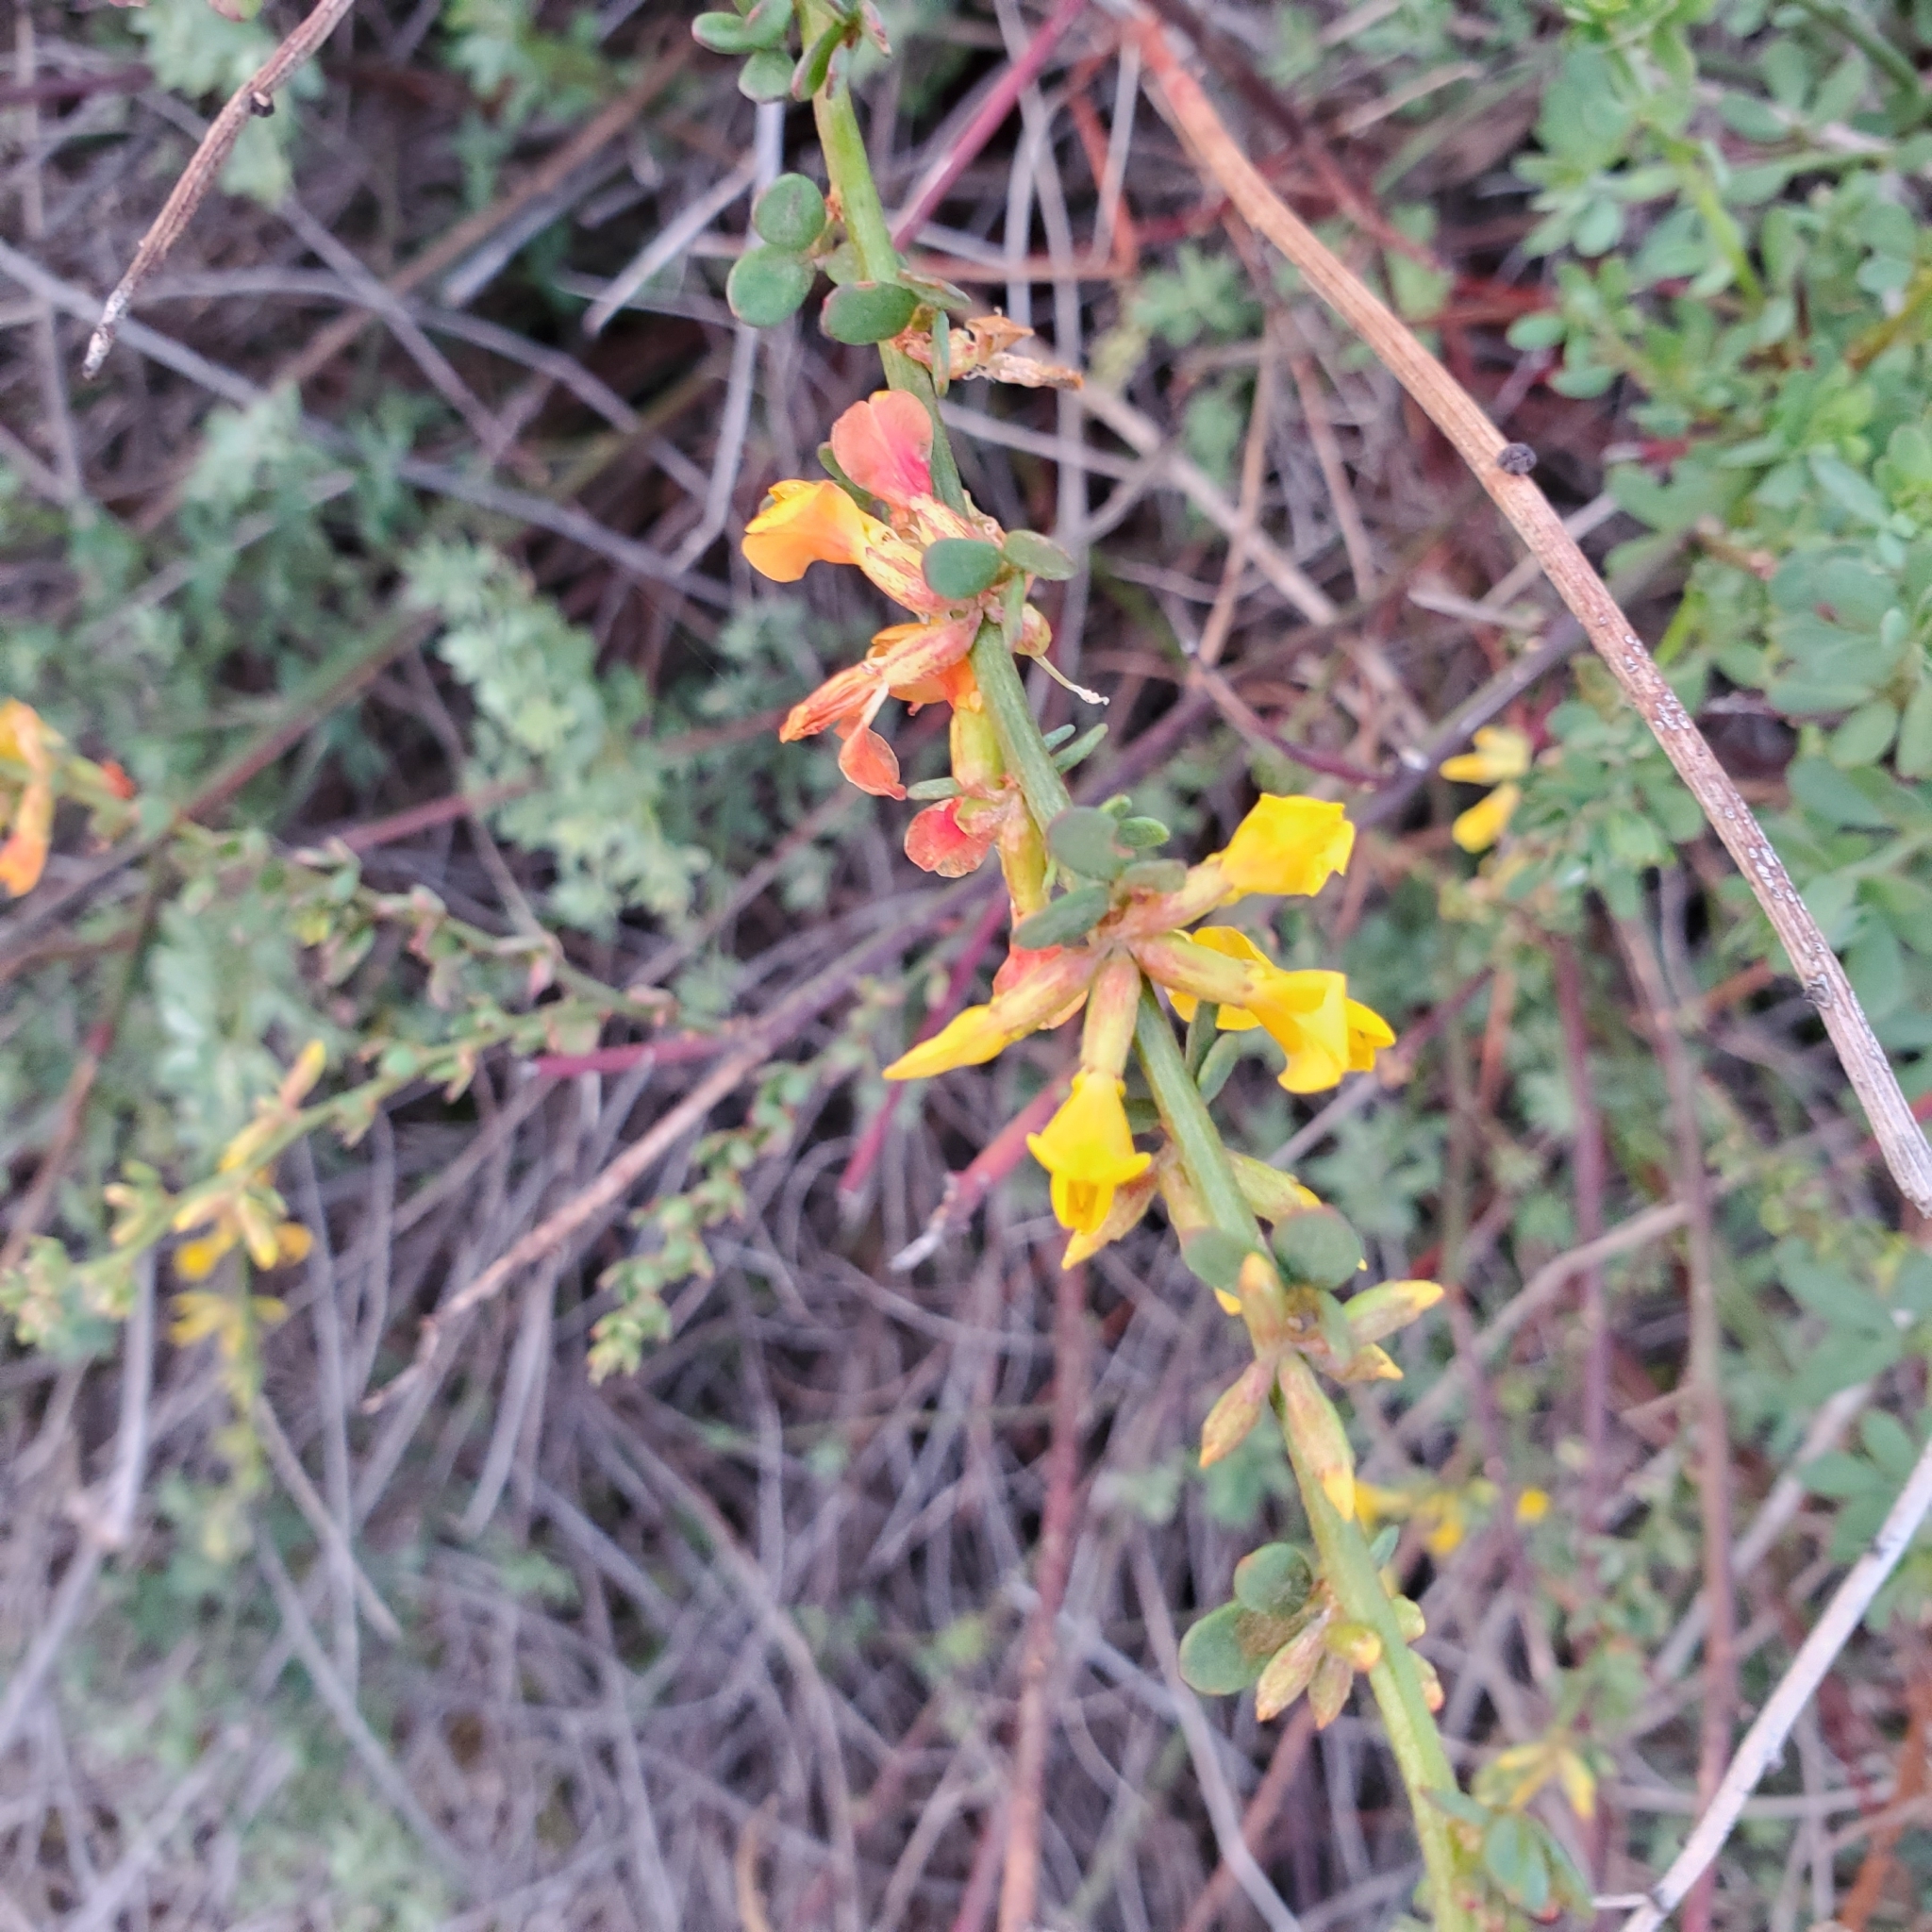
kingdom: Plantae
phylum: Tracheophyta
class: Magnoliopsida
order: Fabales
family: Fabaceae
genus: Acmispon
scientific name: Acmispon glaber
